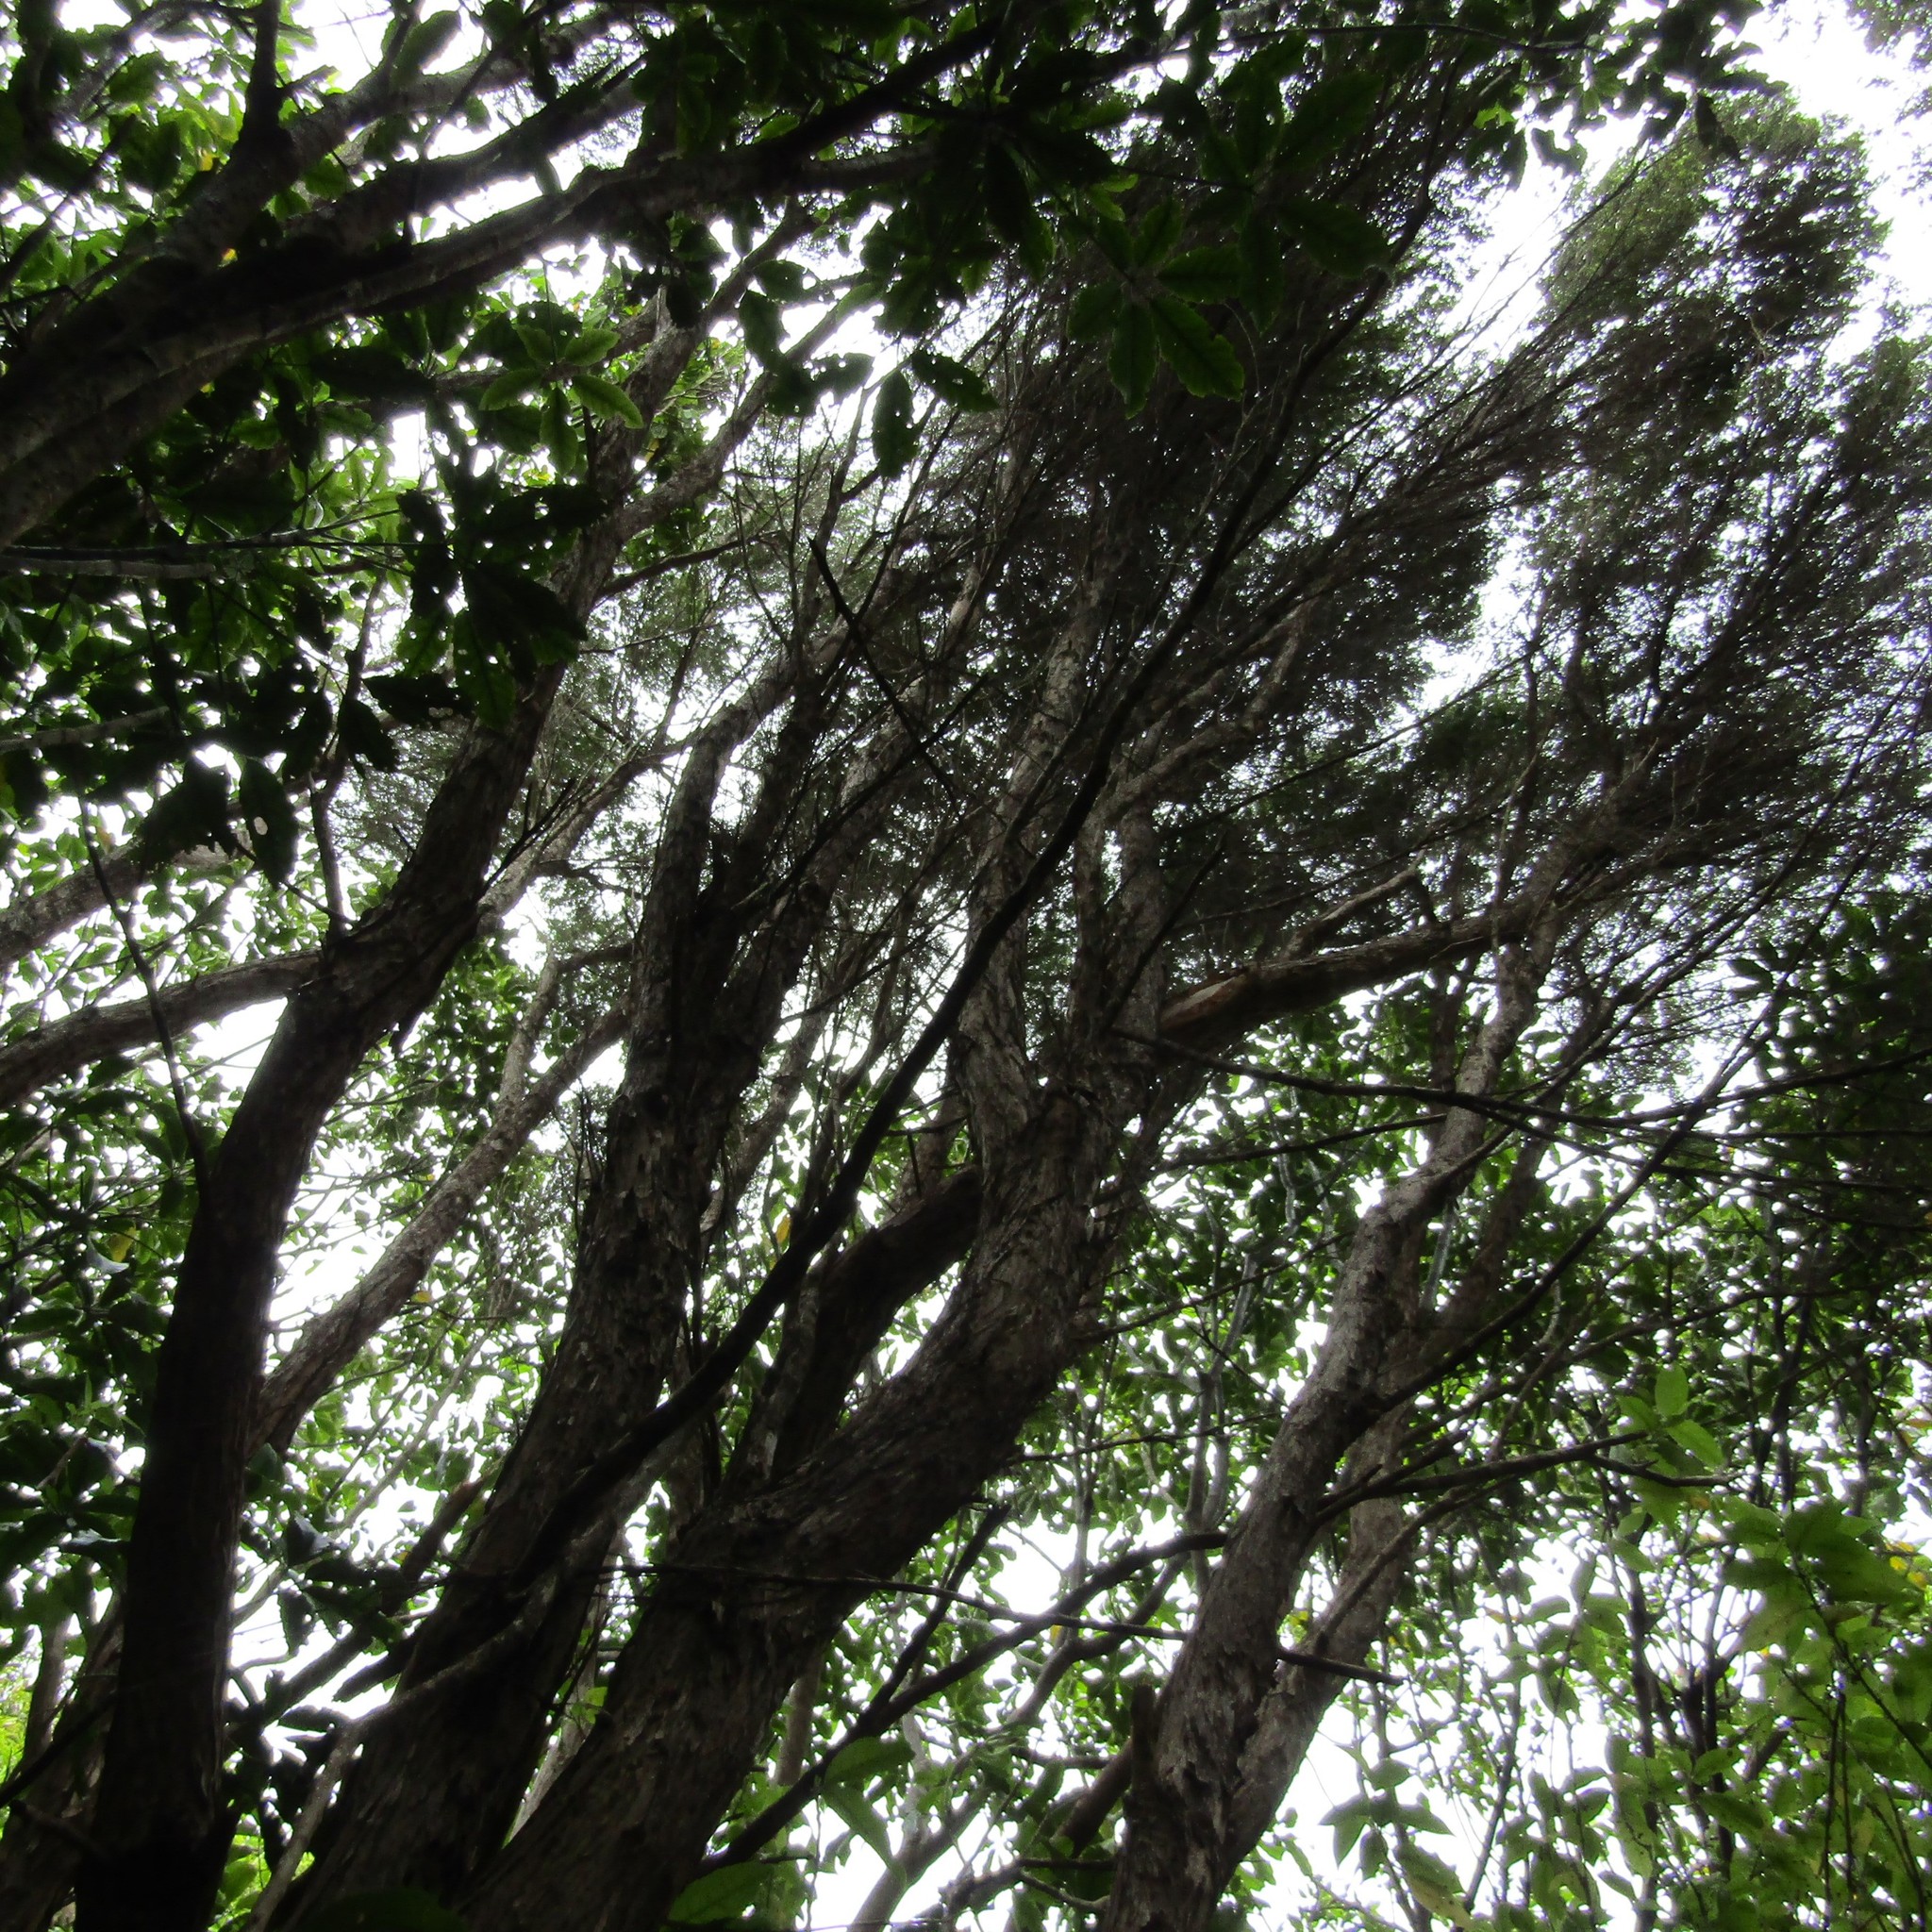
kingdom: Plantae
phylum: Tracheophyta
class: Magnoliopsida
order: Myrtales
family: Myrtaceae
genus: Kunzea
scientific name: Kunzea ericoides
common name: Burgan
